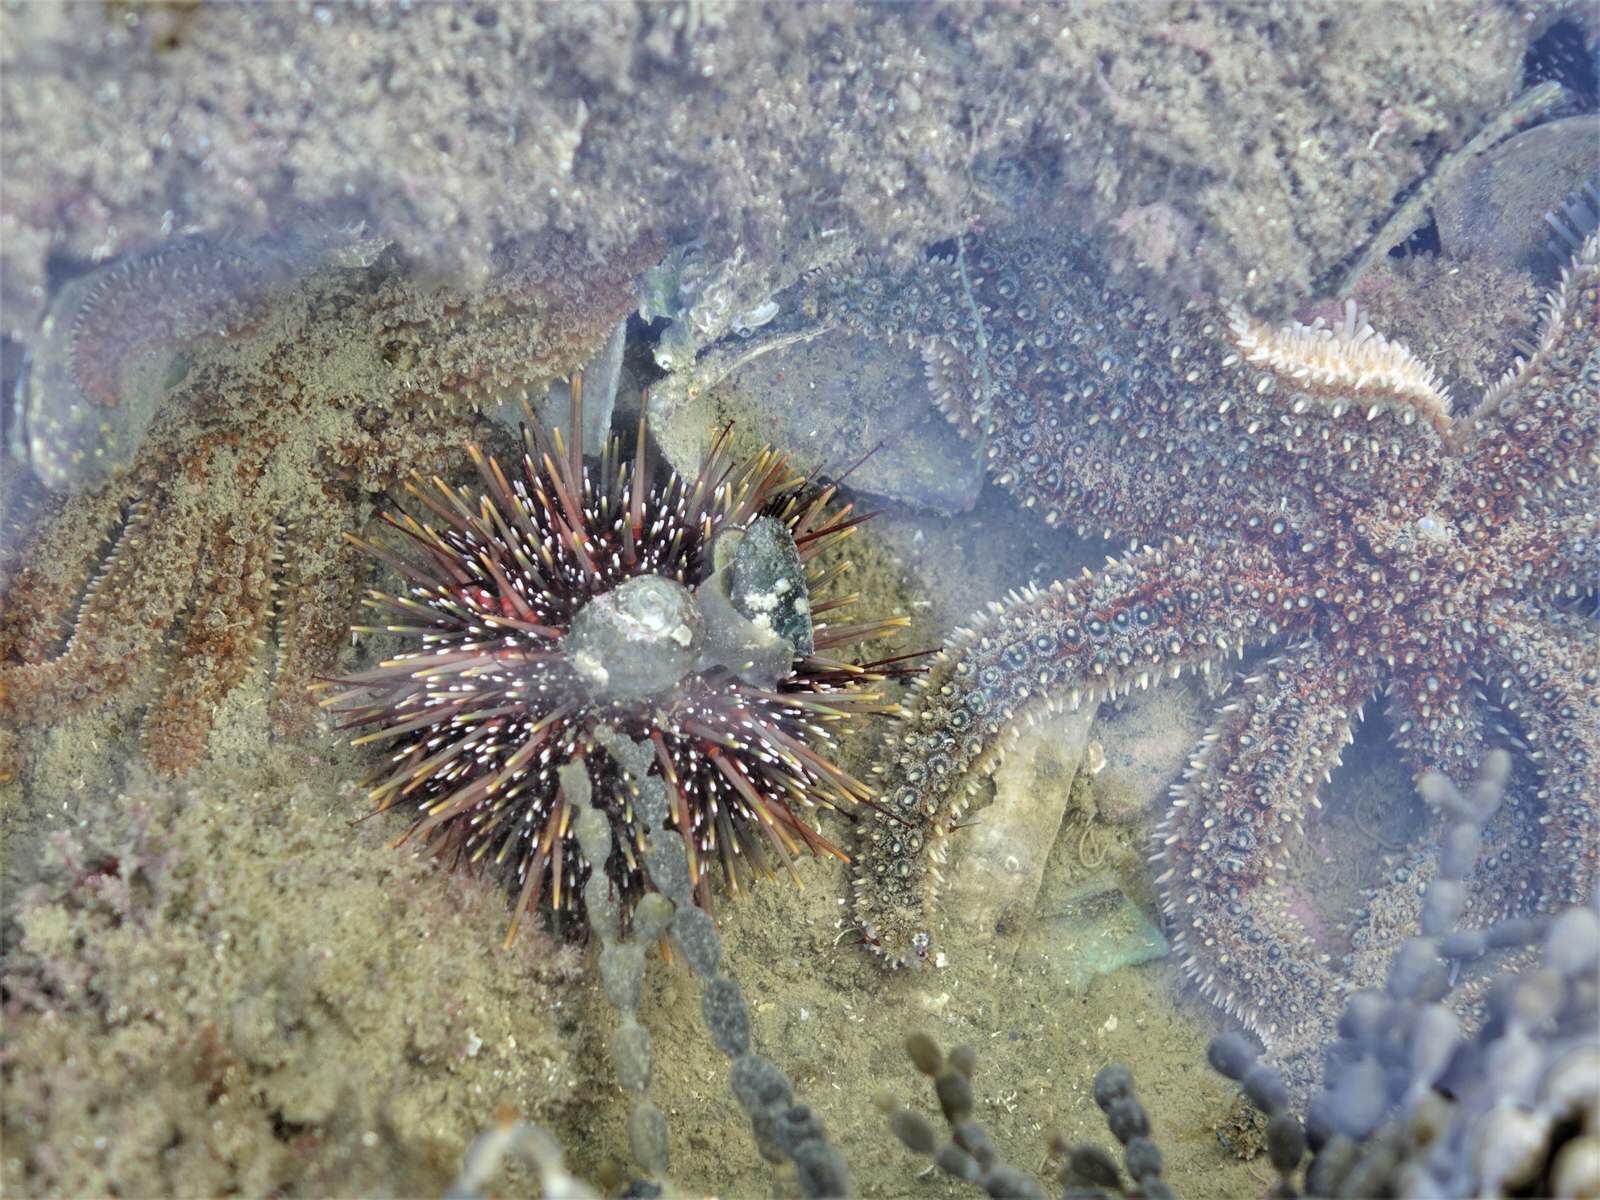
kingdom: Animalia
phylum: Echinodermata
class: Echinoidea
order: Camarodonta
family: Echinometridae
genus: Evechinus
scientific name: Evechinus chloroticus
